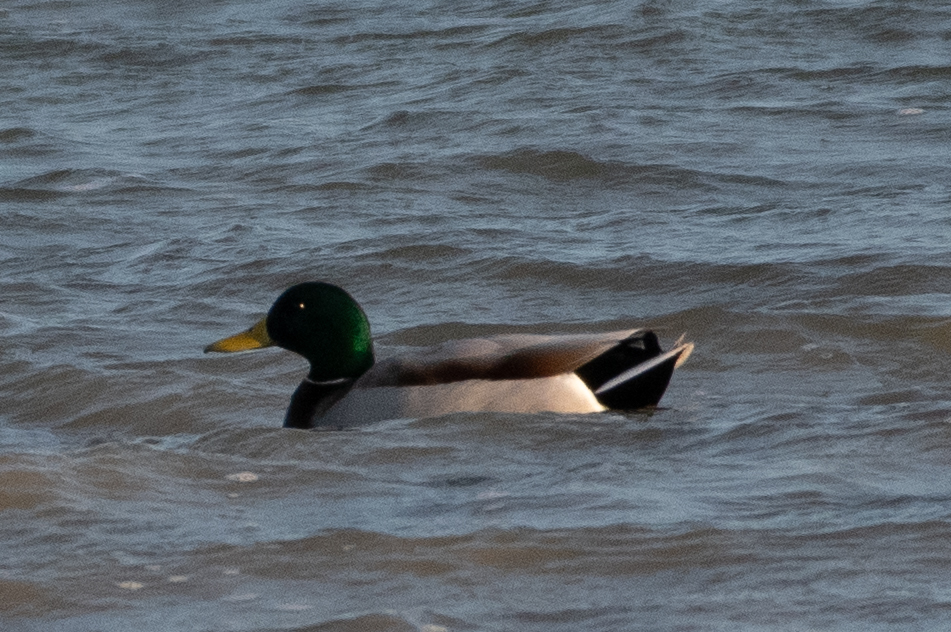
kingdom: Animalia
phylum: Chordata
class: Aves
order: Anseriformes
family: Anatidae
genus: Anas
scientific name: Anas platyrhynchos
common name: Mallard
